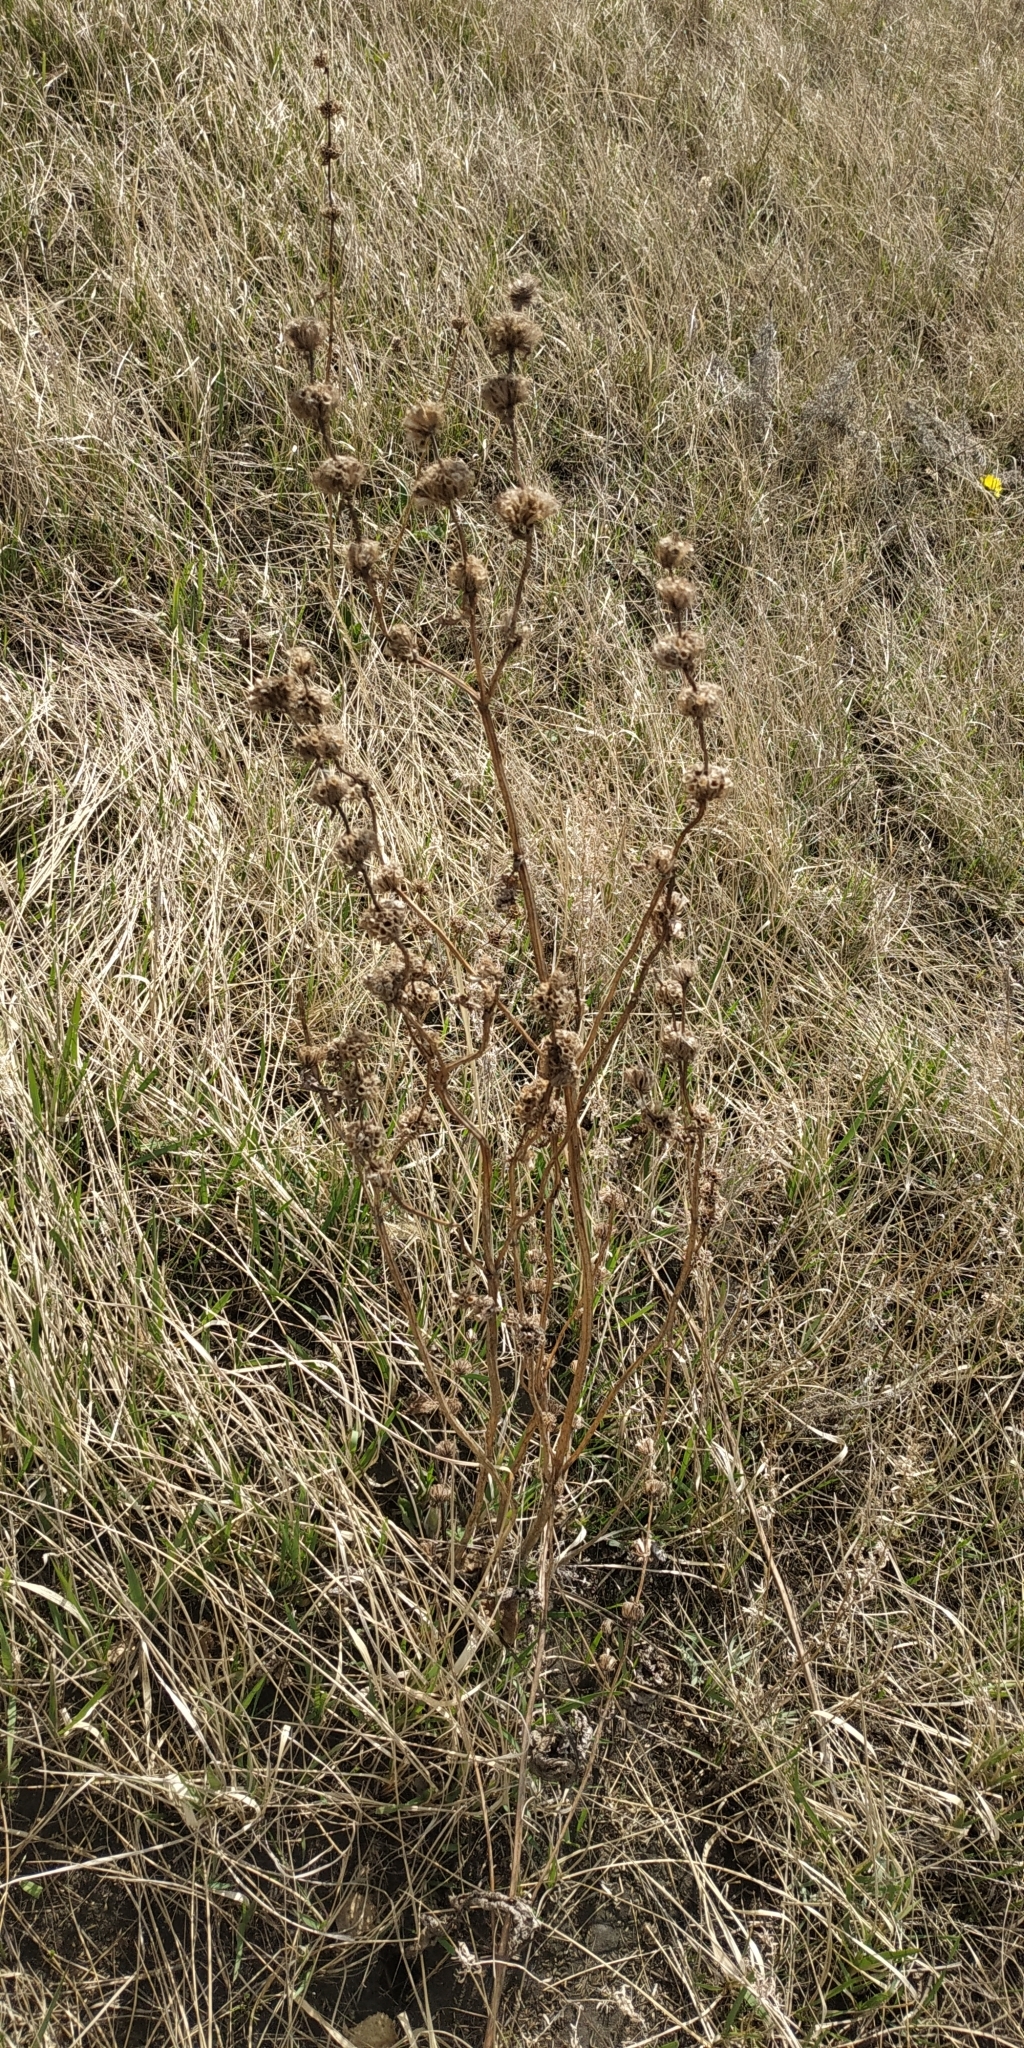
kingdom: Plantae
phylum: Tracheophyta
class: Magnoliopsida
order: Lamiales
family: Lamiaceae
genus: Phlomoides
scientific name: Phlomoides tuberosa
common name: Tuberous jerusalem sage
